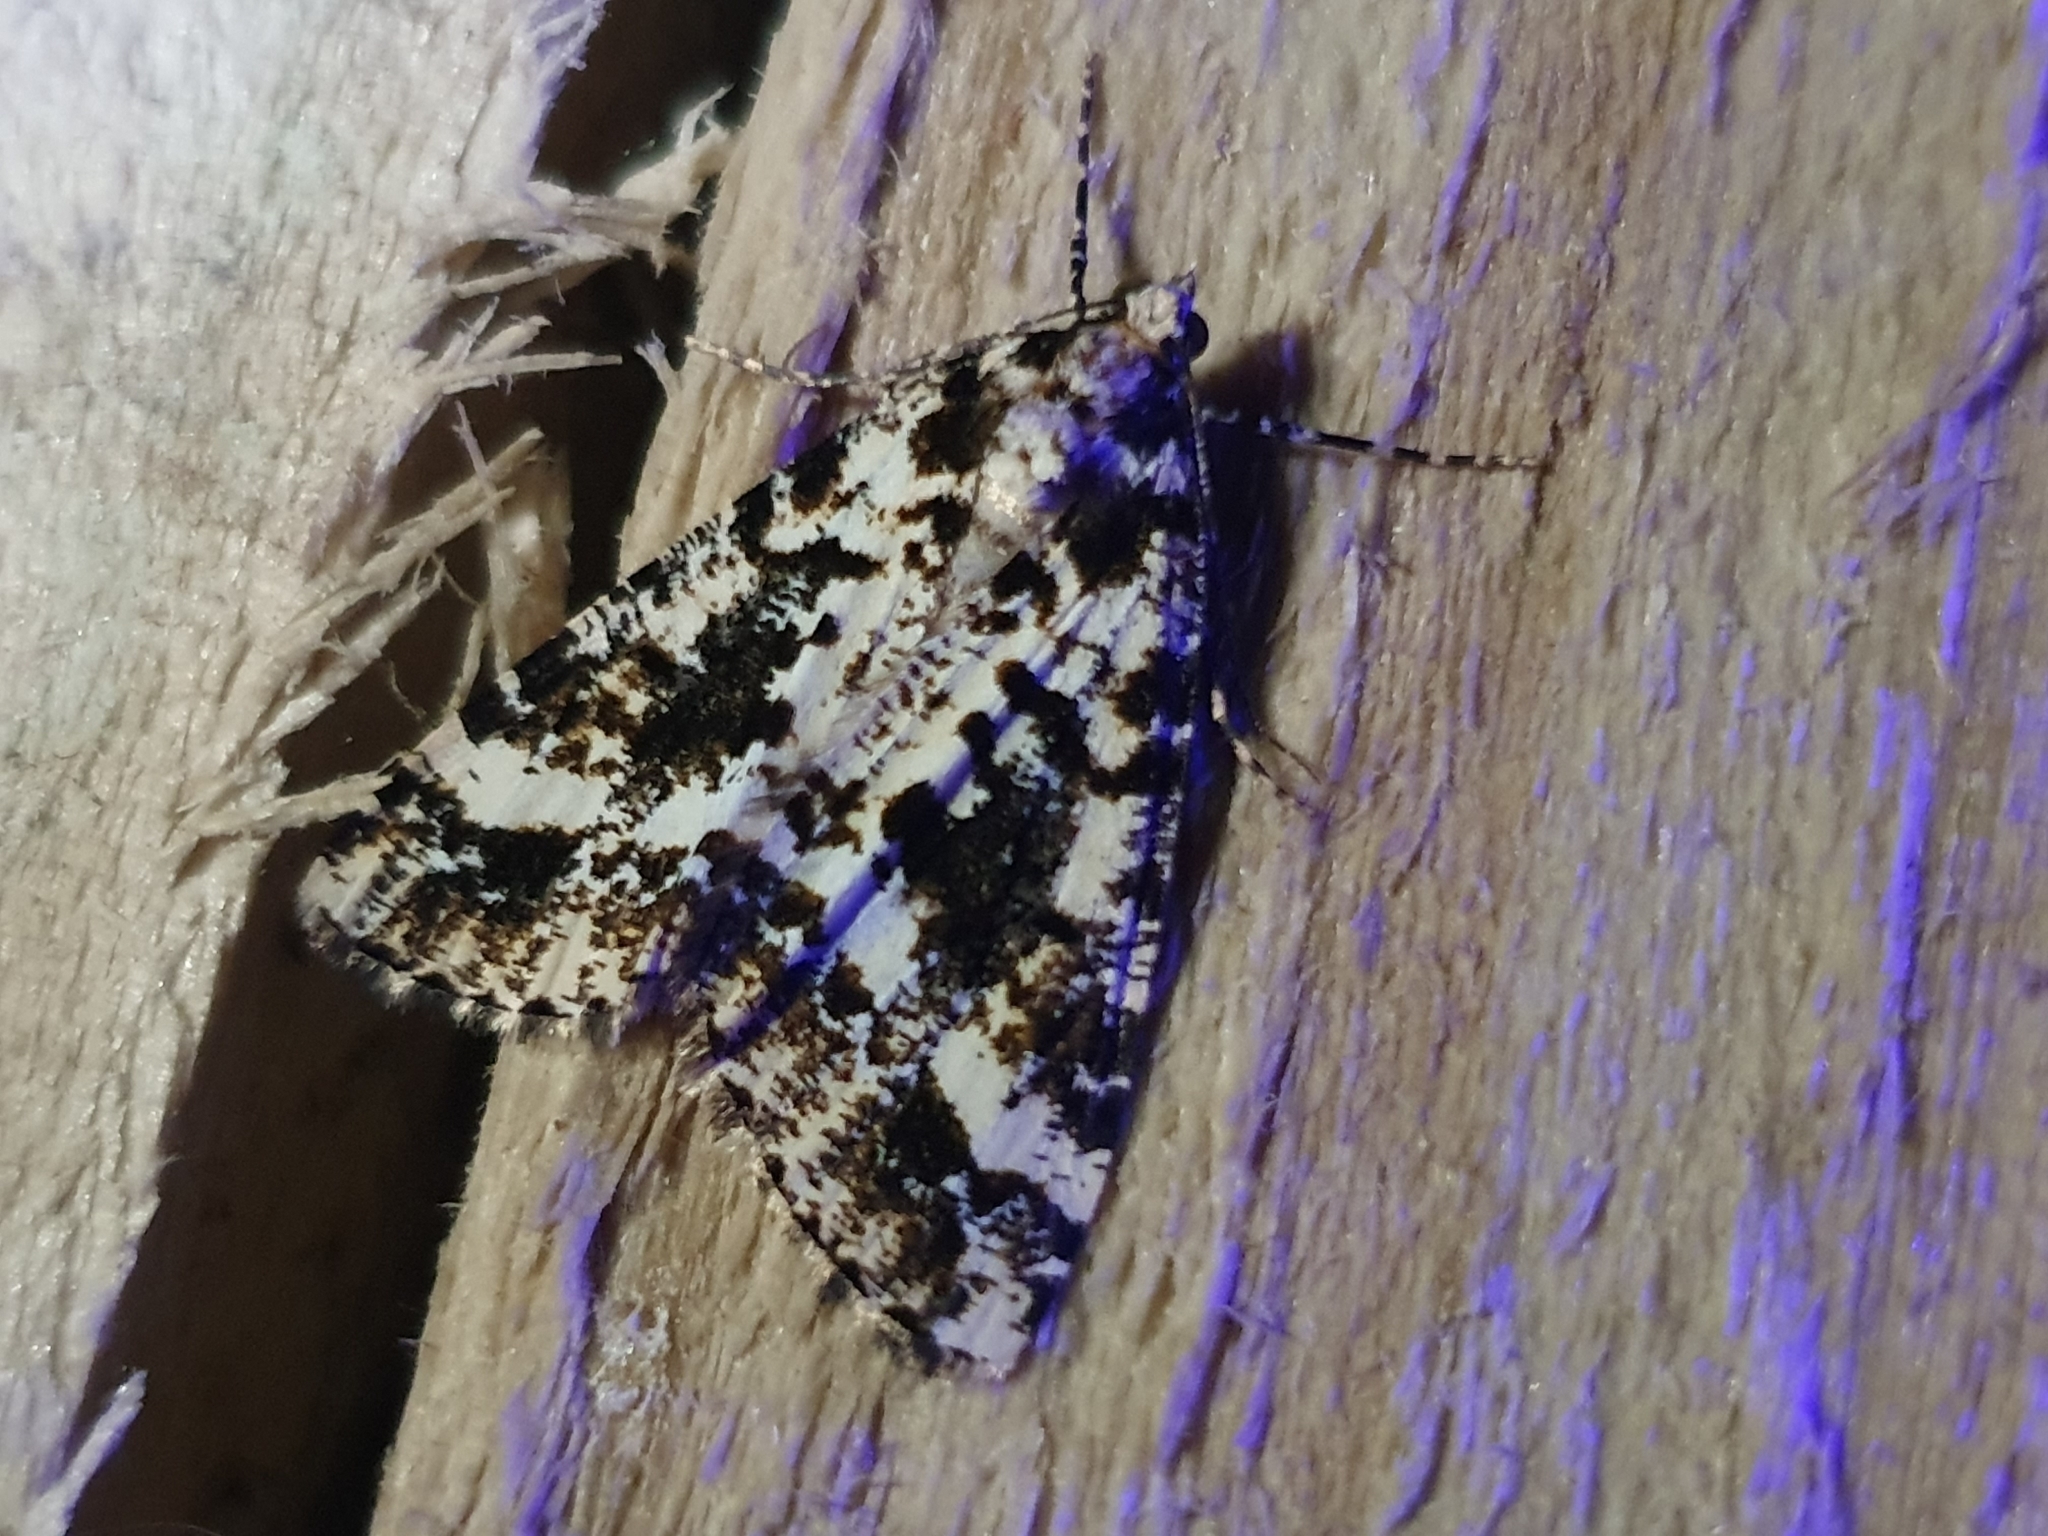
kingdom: Animalia
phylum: Arthropoda
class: Insecta
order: Lepidoptera
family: Geometridae
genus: Pseudocoremia
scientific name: Pseudocoremia leucelaea
